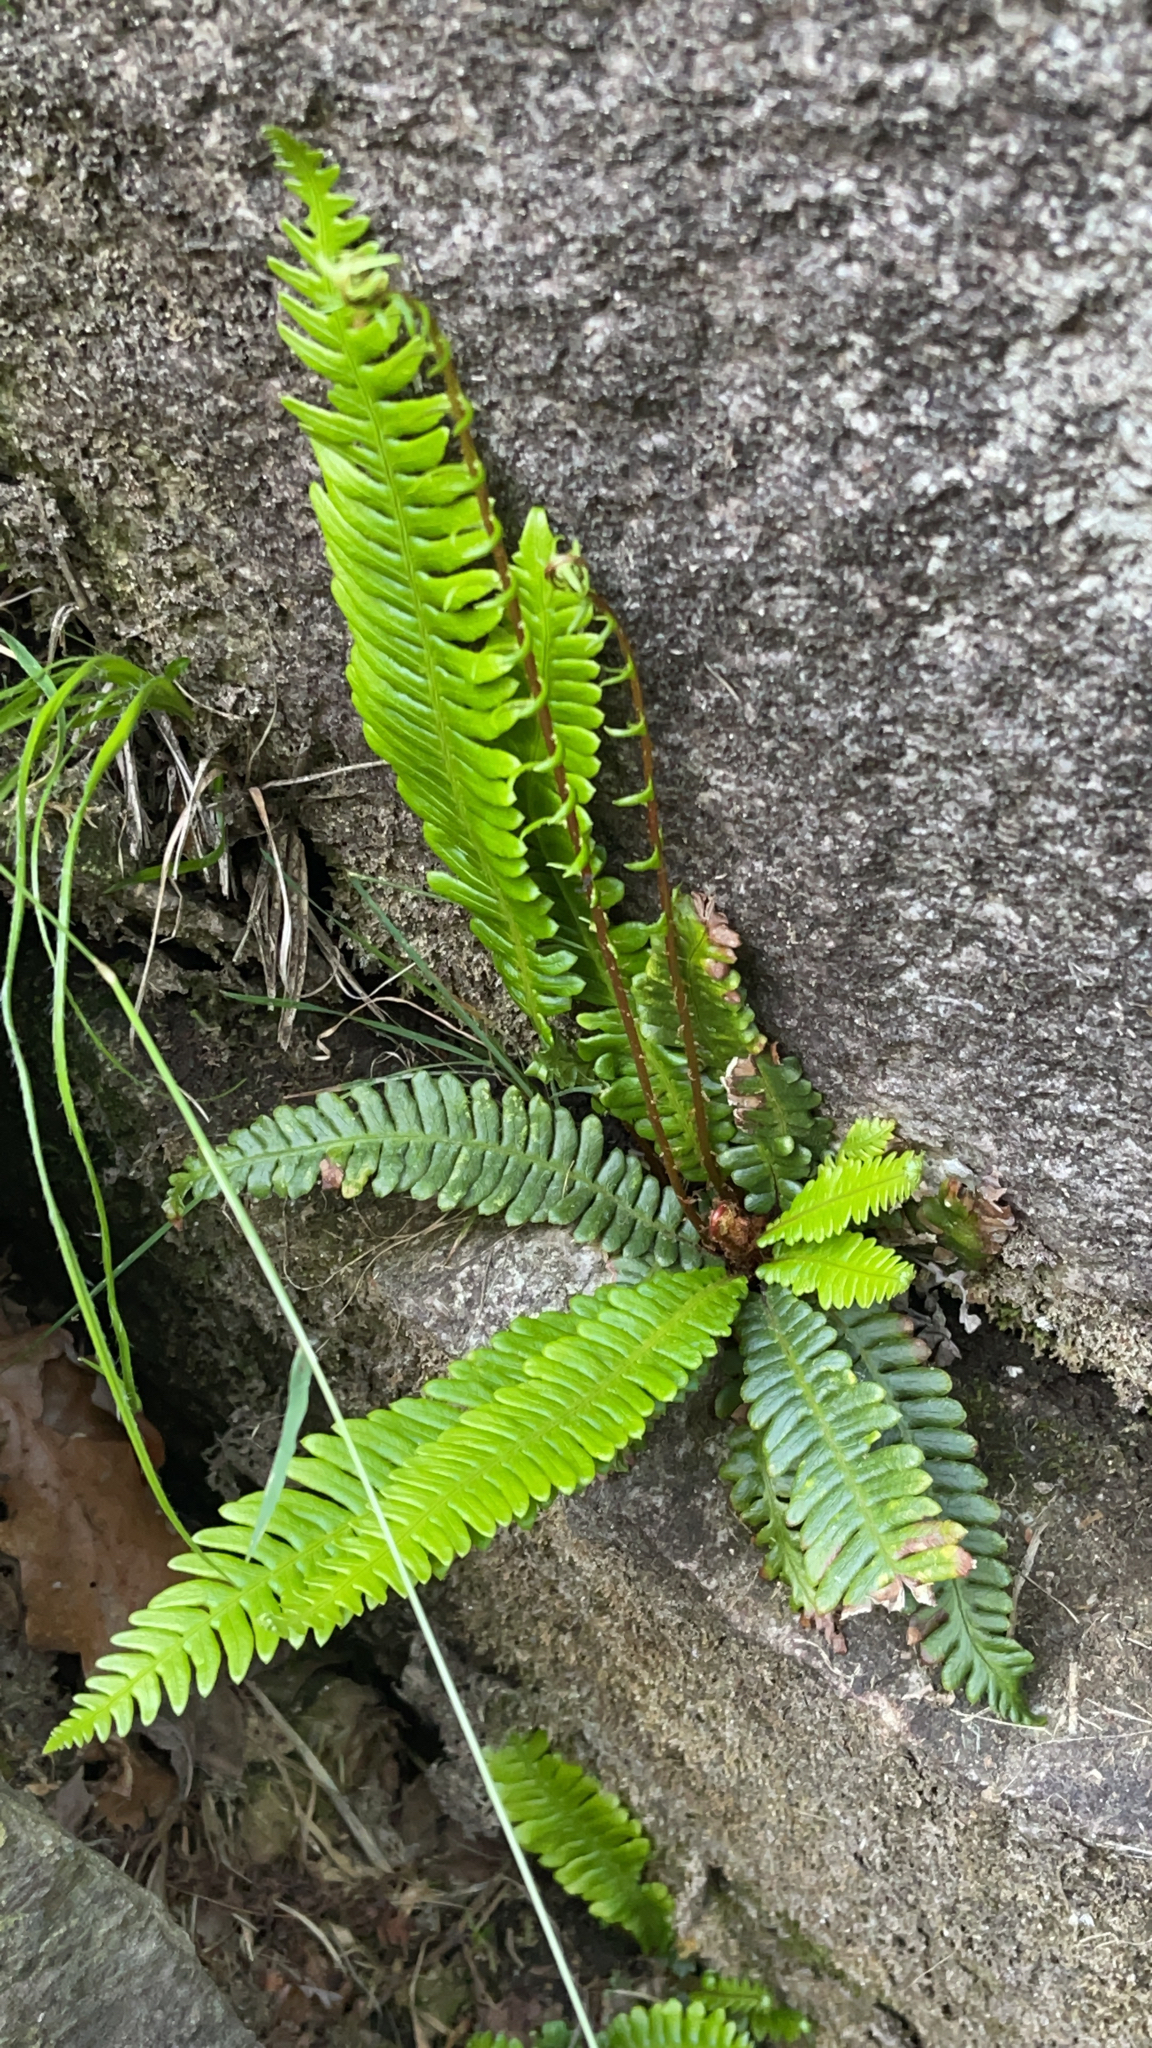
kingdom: Plantae
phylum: Tracheophyta
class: Polypodiopsida
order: Polypodiales
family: Blechnaceae
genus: Struthiopteris
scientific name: Struthiopteris spicant
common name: Deer fern
